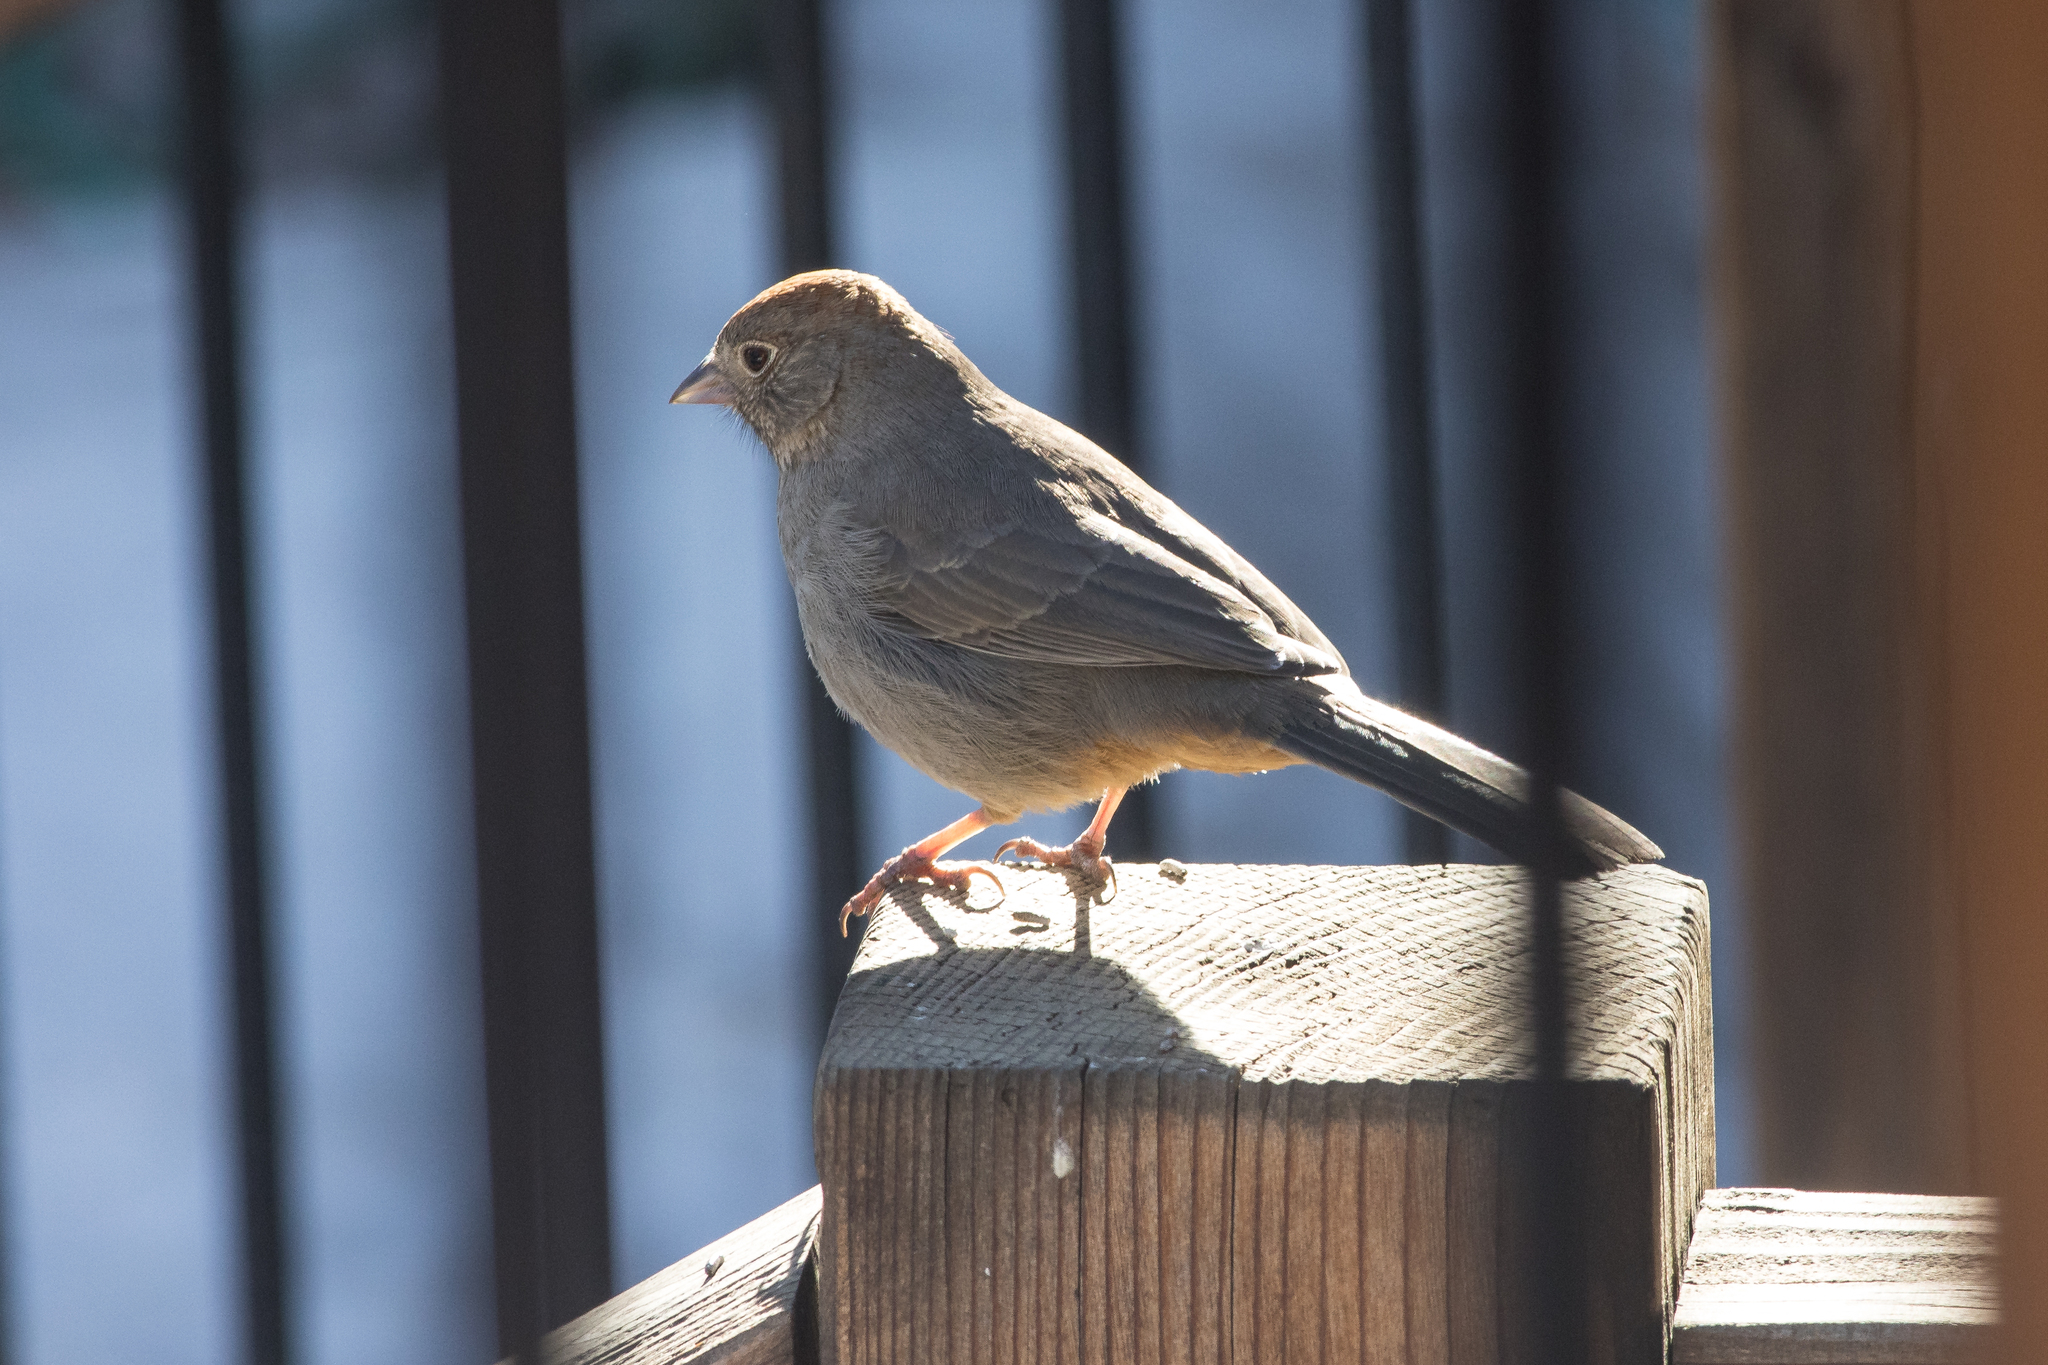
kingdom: Animalia
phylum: Chordata
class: Aves
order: Passeriformes
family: Passerellidae
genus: Melozone
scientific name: Melozone fusca
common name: Canyon towhee
